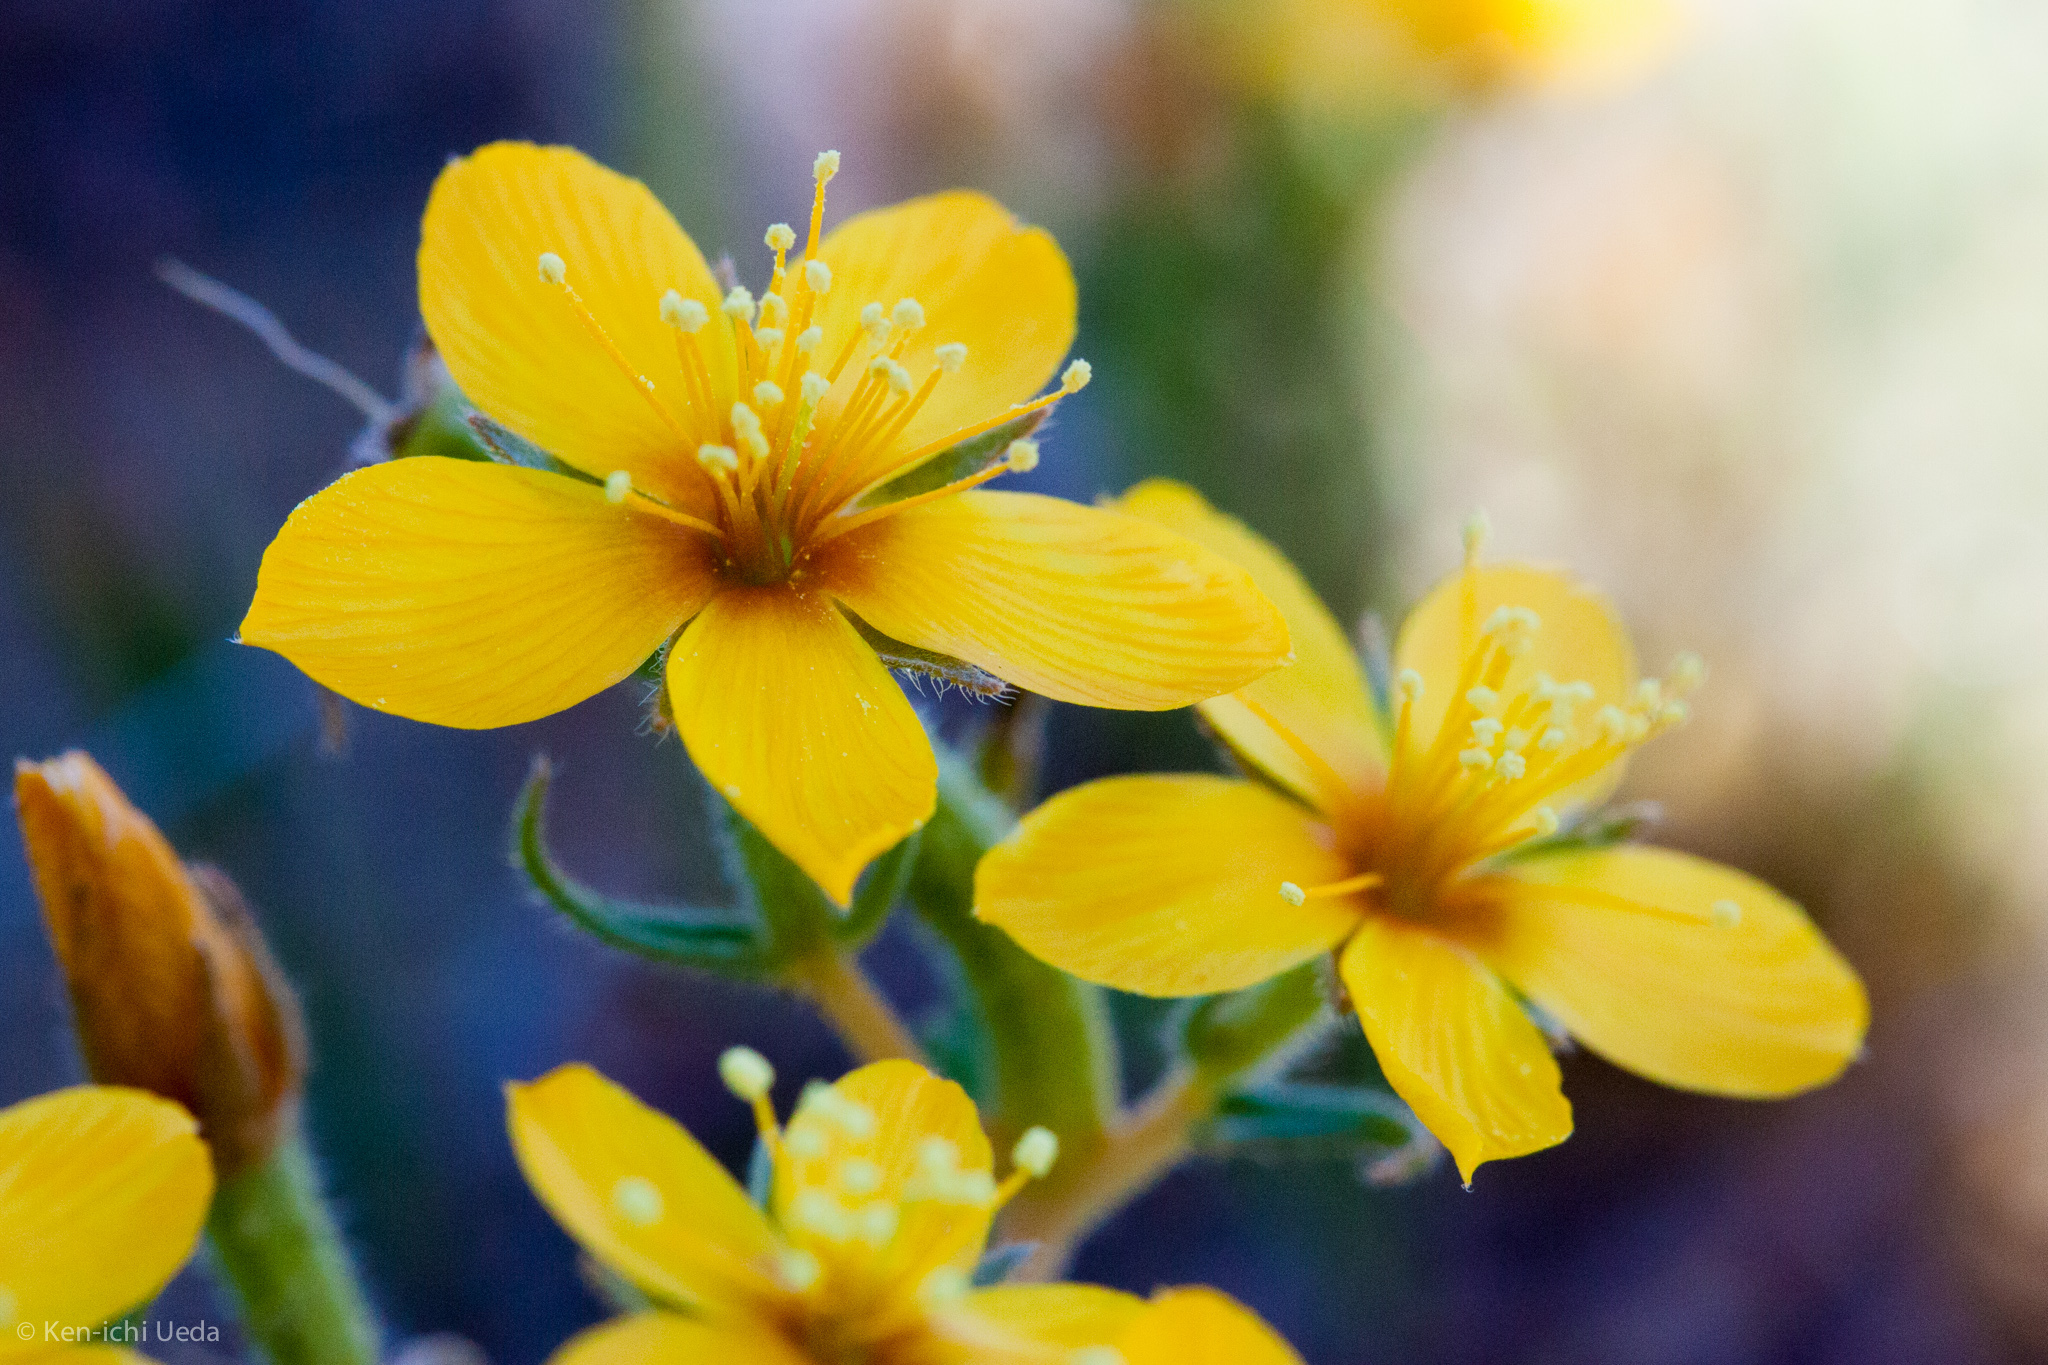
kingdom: Plantae
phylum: Tracheophyta
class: Magnoliopsida
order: Cornales
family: Loasaceae
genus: Mentzelia
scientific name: Mentzelia affinis
